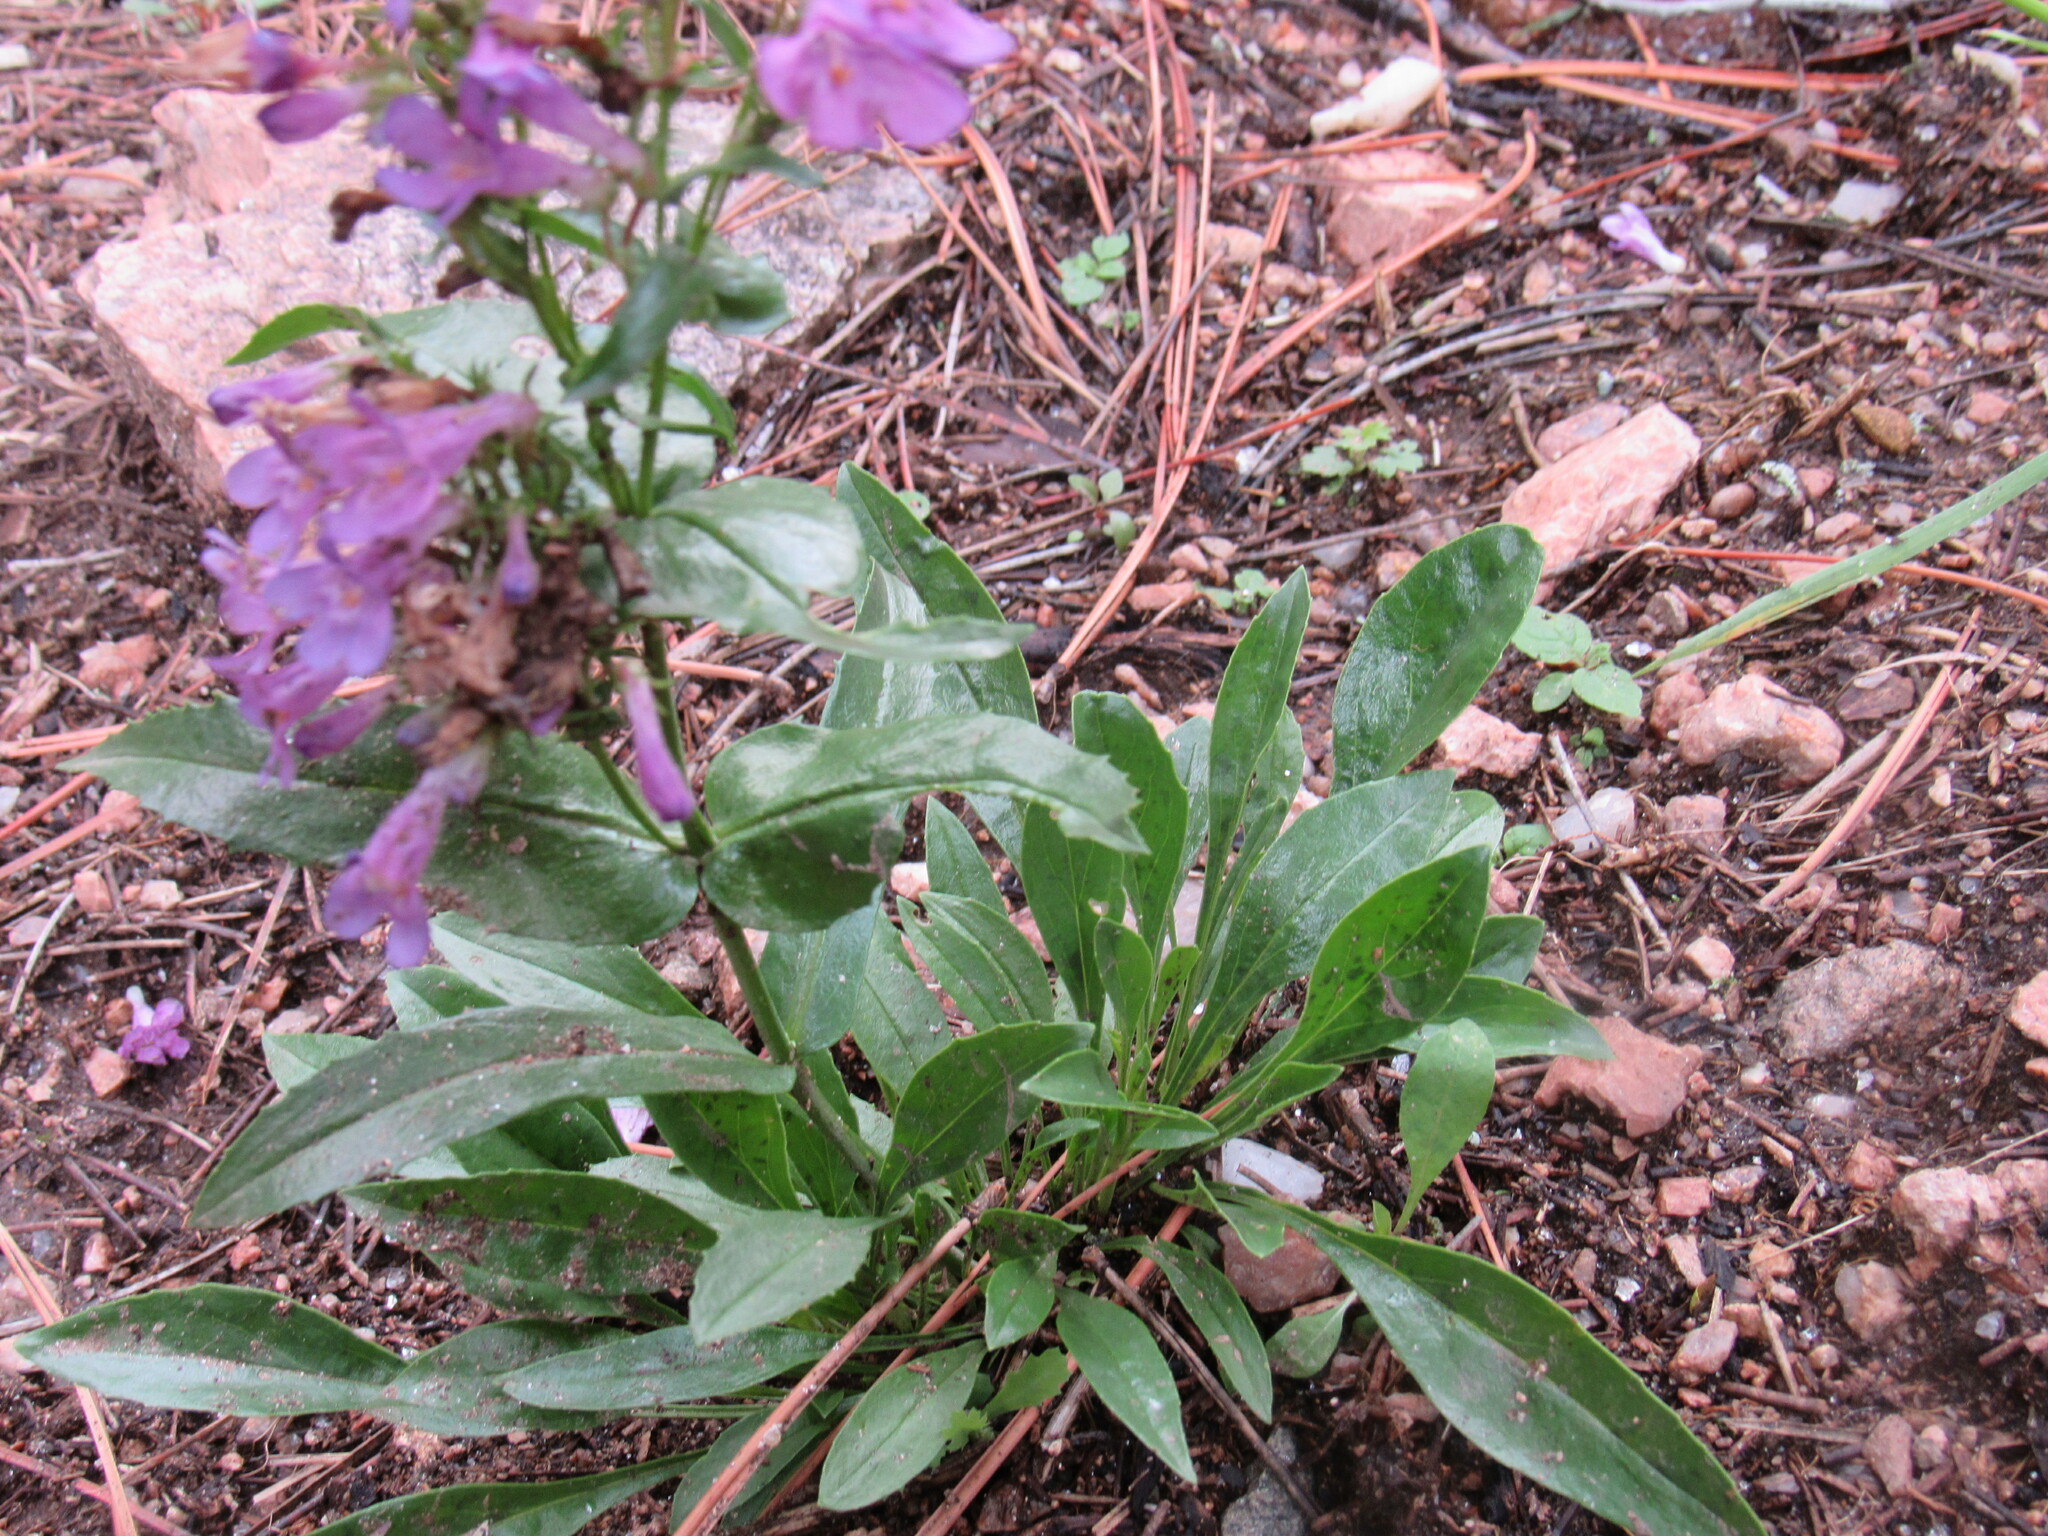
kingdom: Plantae
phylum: Tracheophyta
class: Magnoliopsida
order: Lamiales
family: Plantaginaceae
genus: Penstemon
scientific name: Penstemon virens
